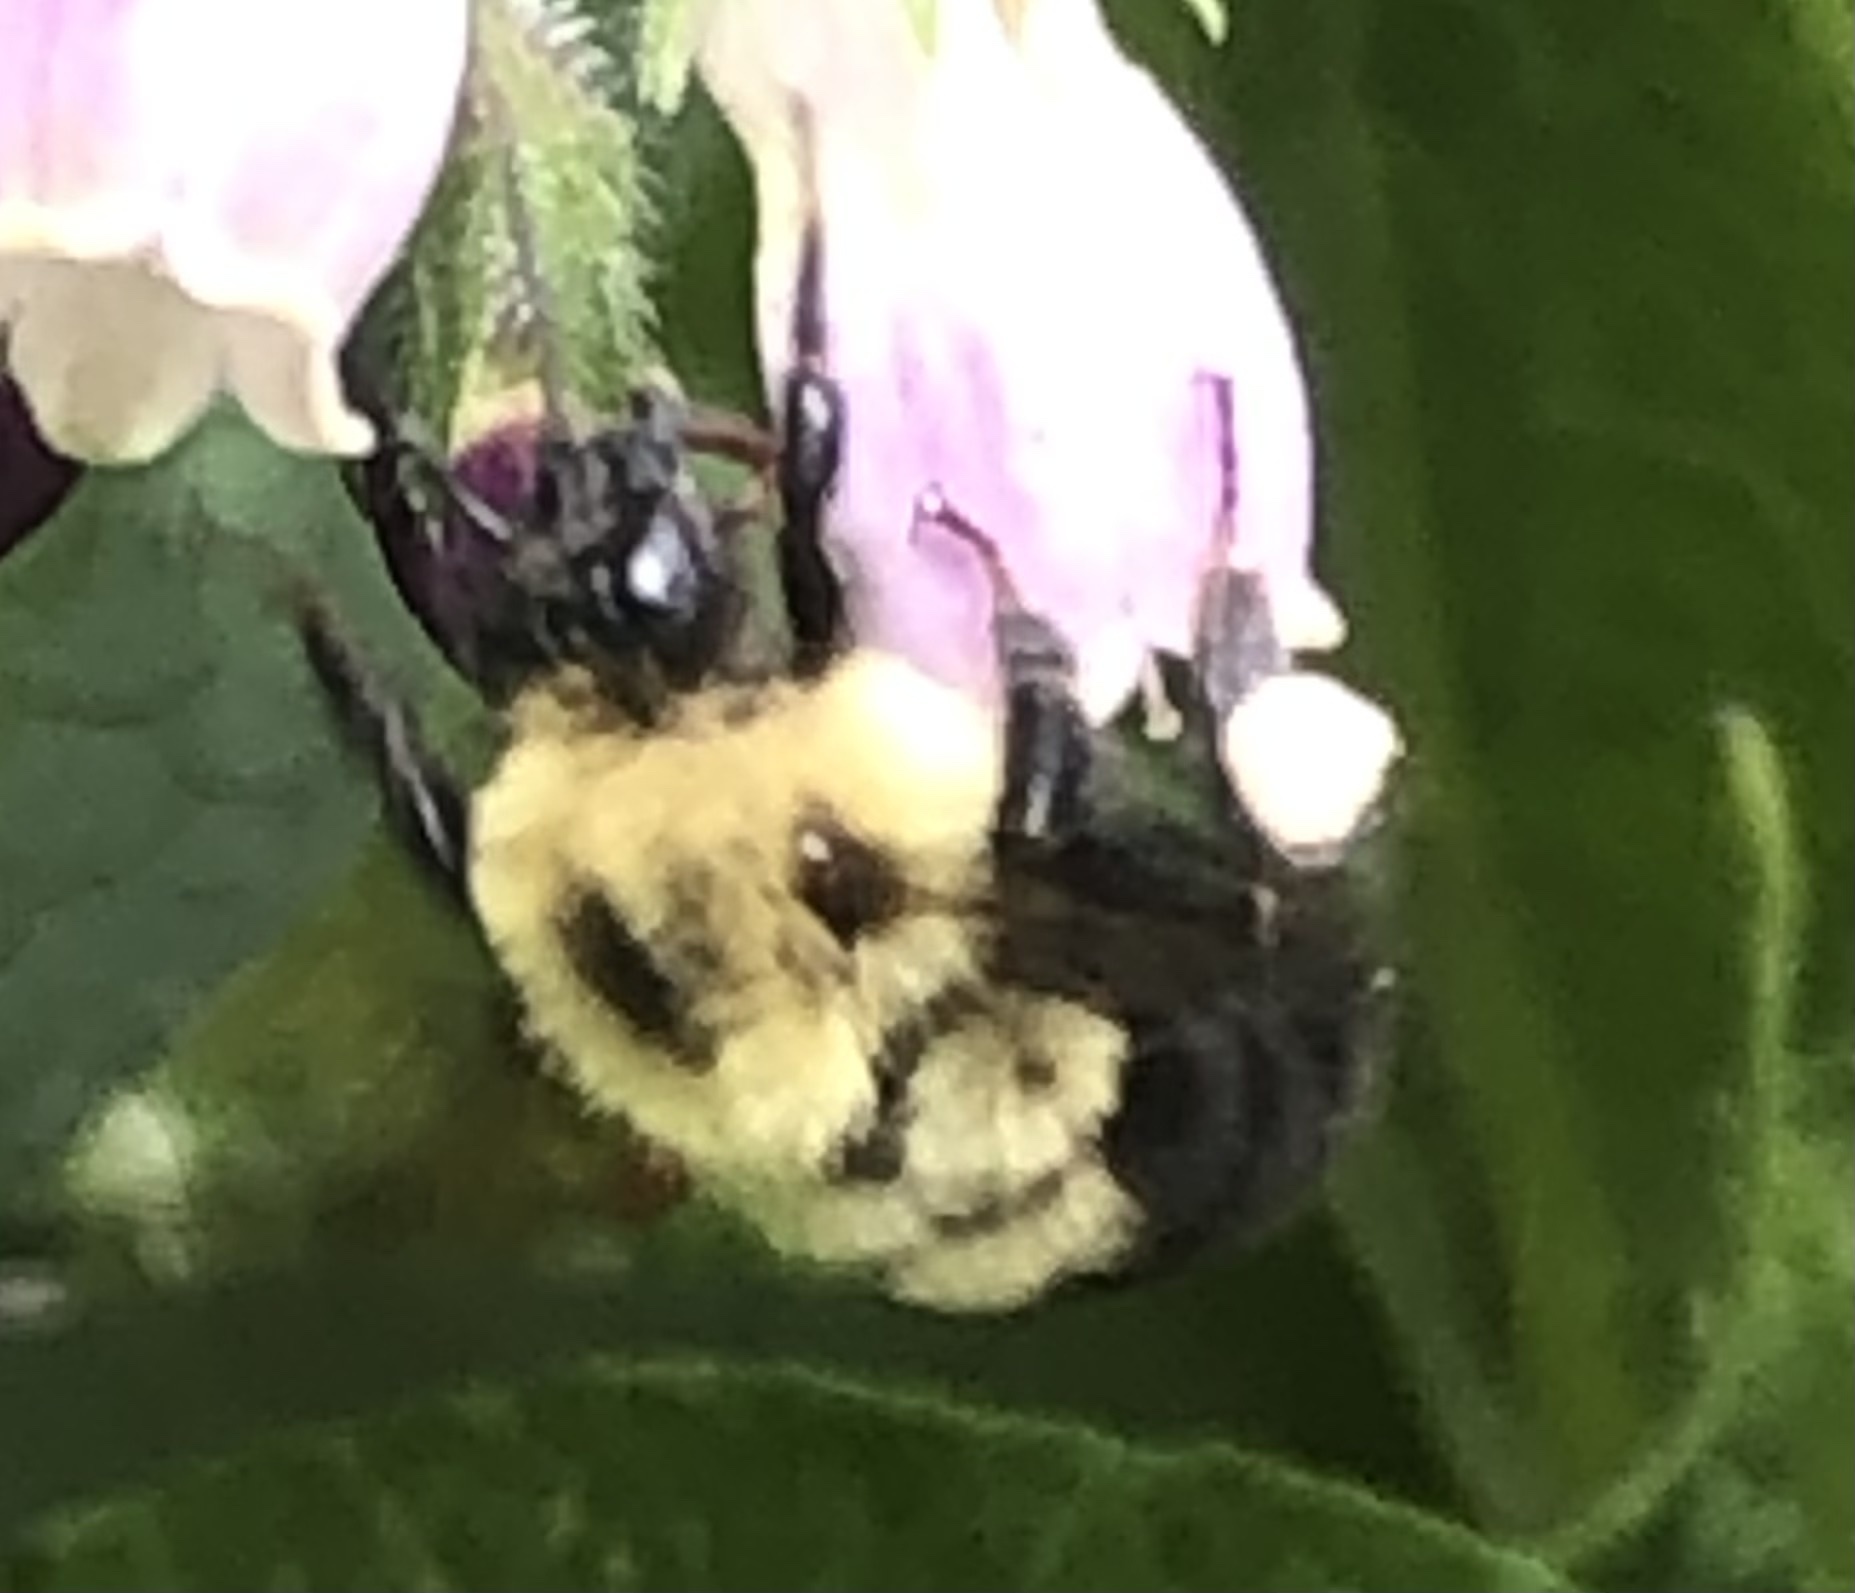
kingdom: Animalia
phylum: Arthropoda
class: Insecta
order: Hymenoptera
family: Apidae
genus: Bombus
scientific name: Bombus bimaculatus
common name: Two-spotted bumble bee
